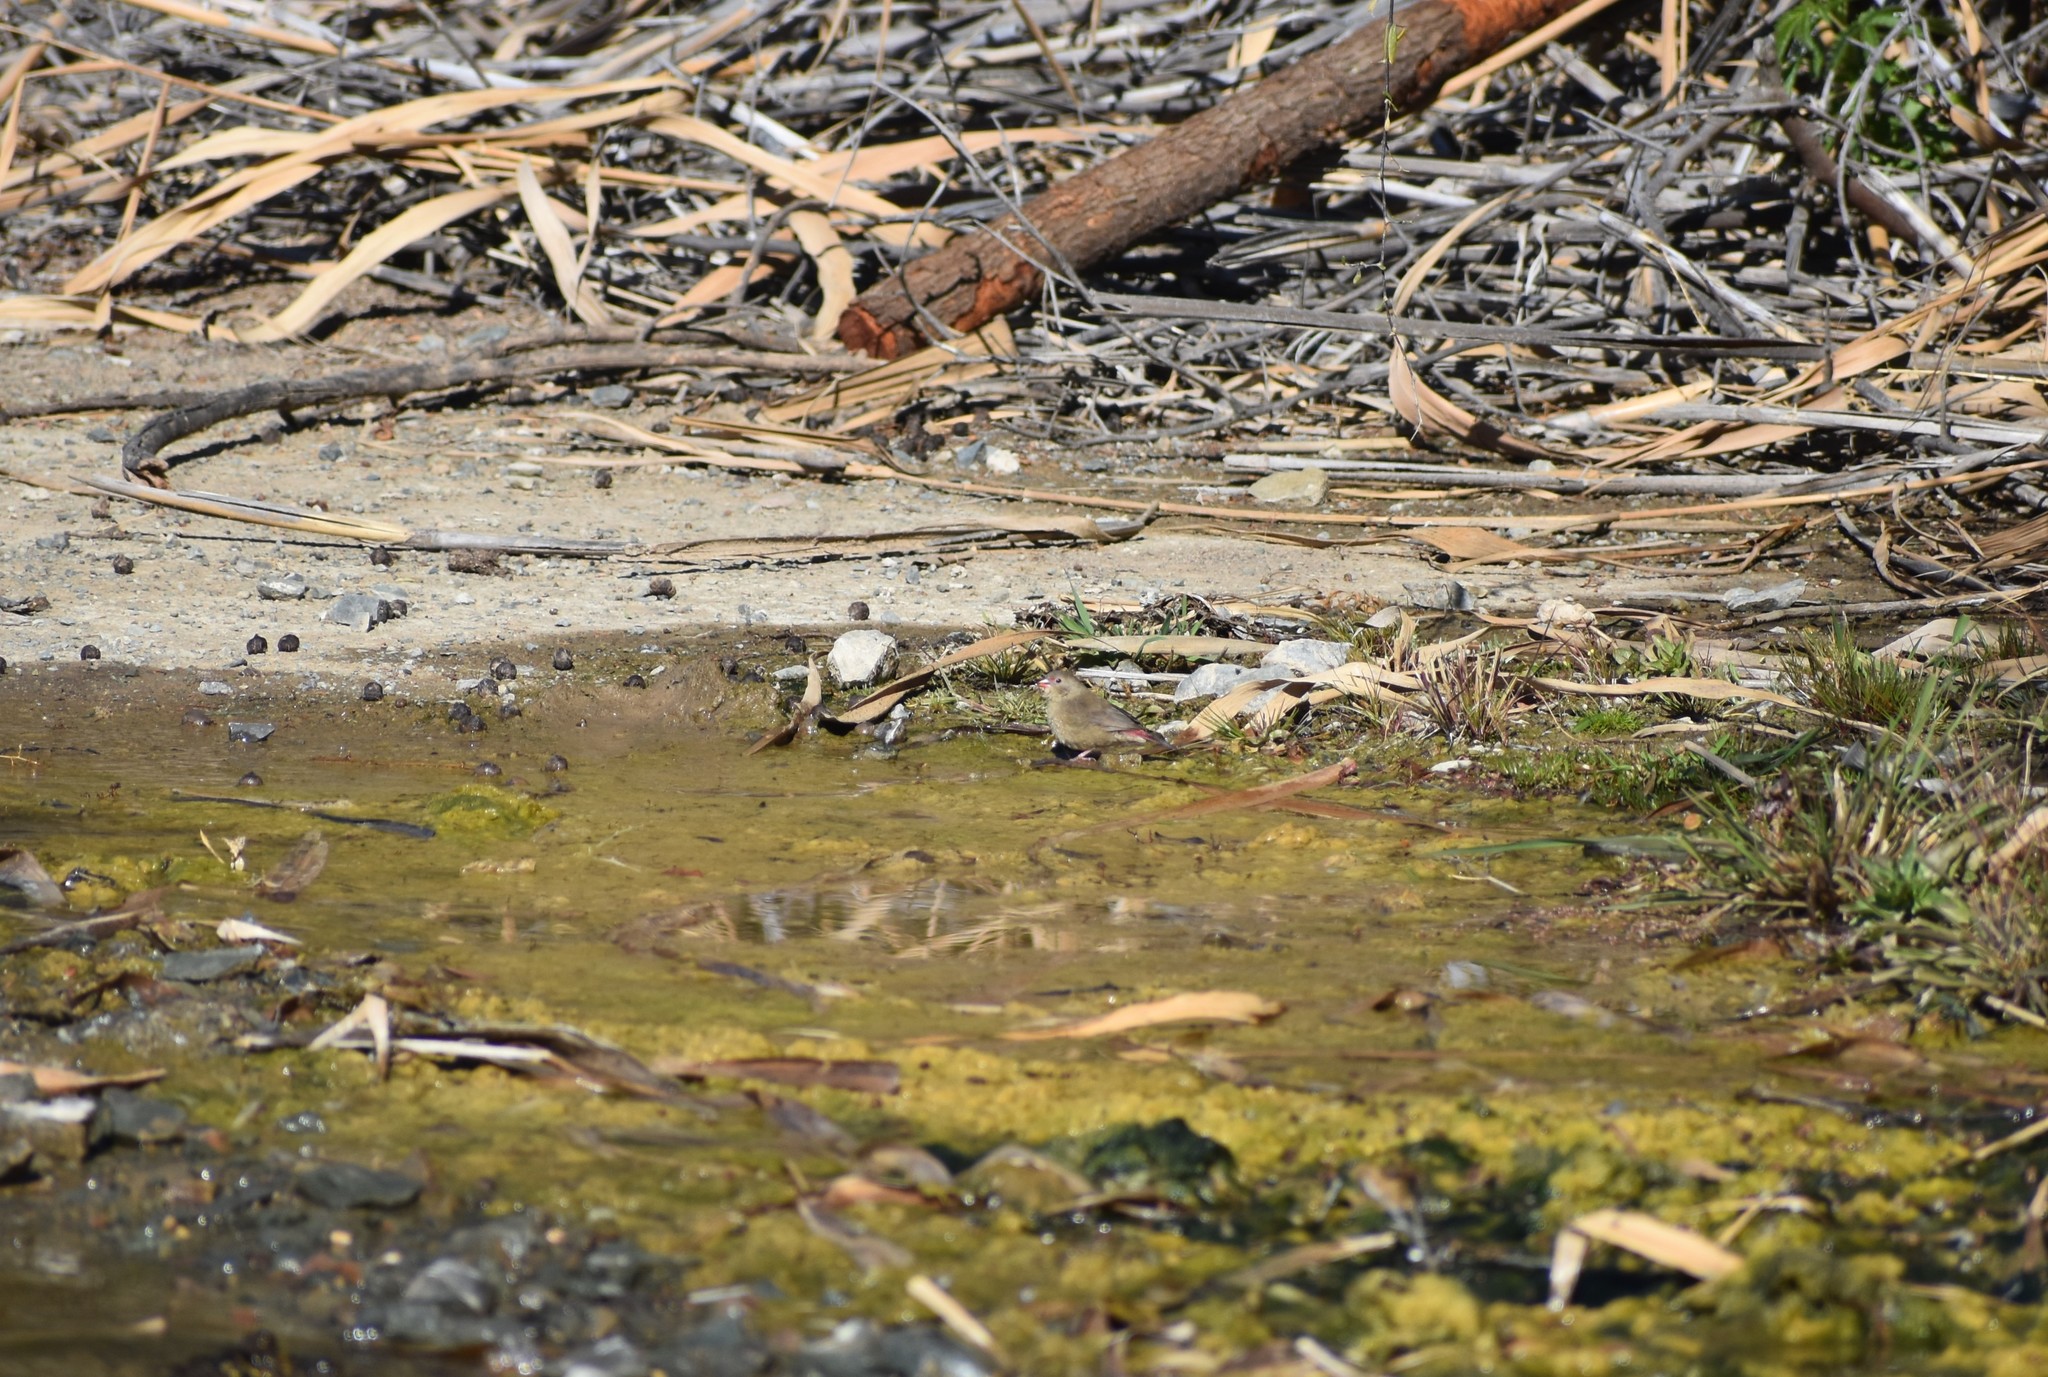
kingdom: Animalia
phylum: Chordata
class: Aves
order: Passeriformes
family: Estrildidae
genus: Lagonosticta
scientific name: Lagonosticta senegala
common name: Red-billed firefinch
